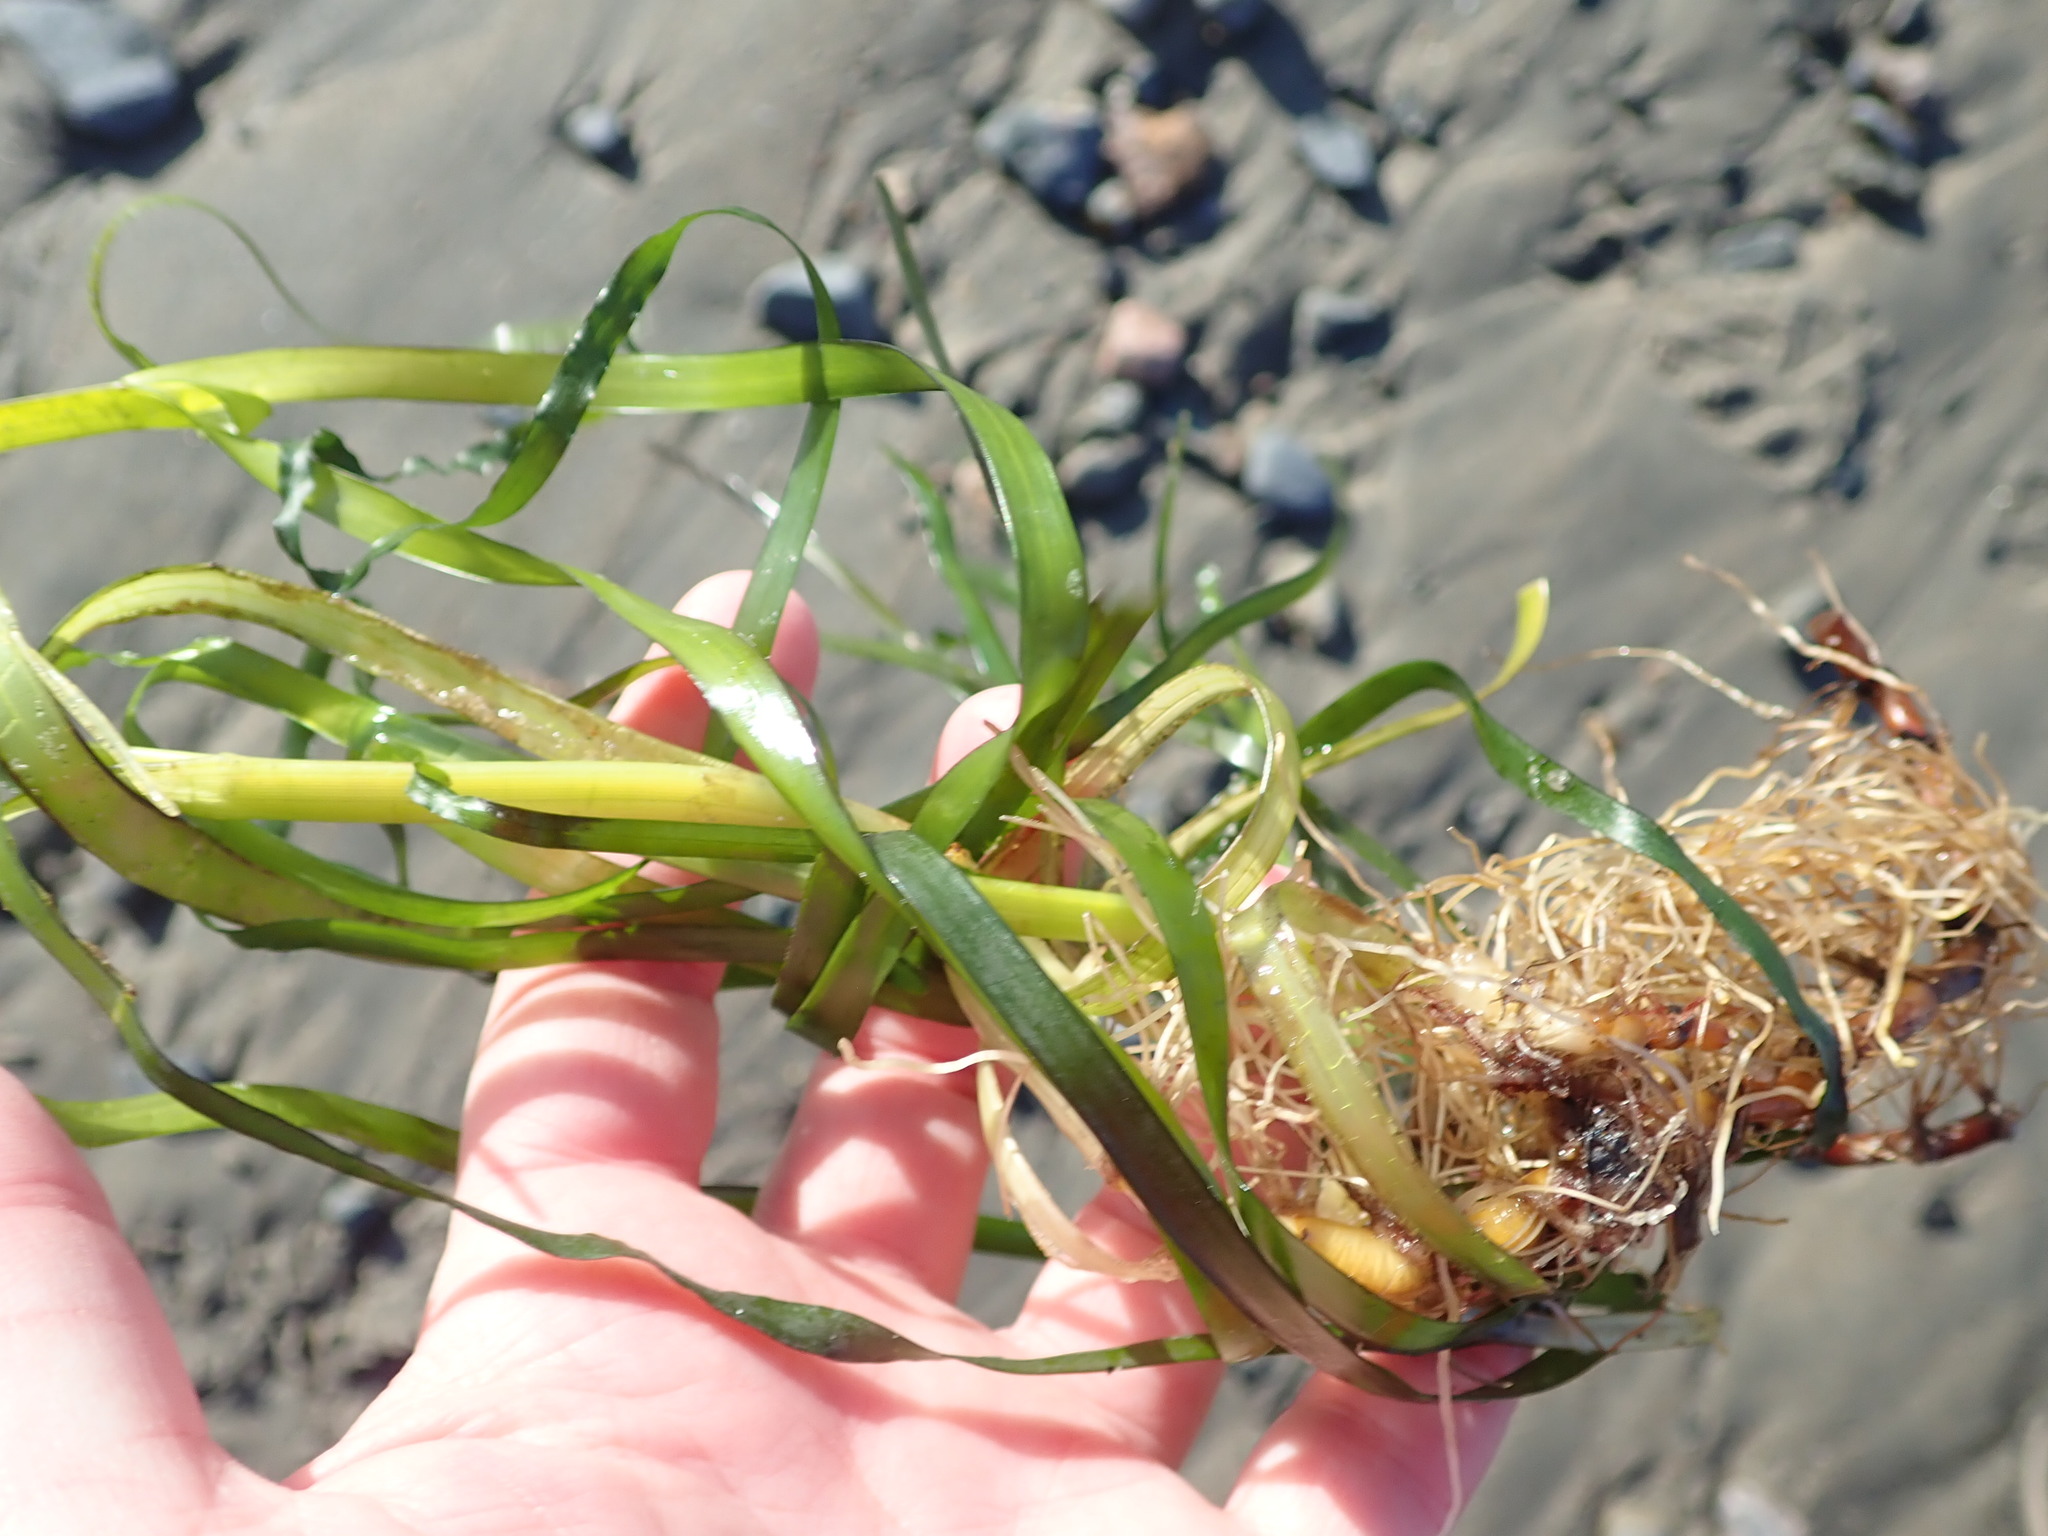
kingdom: Plantae
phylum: Tracheophyta
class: Liliopsida
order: Alismatales
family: Zosteraceae
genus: Zostera
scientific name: Zostera marina
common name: Eelgrass
